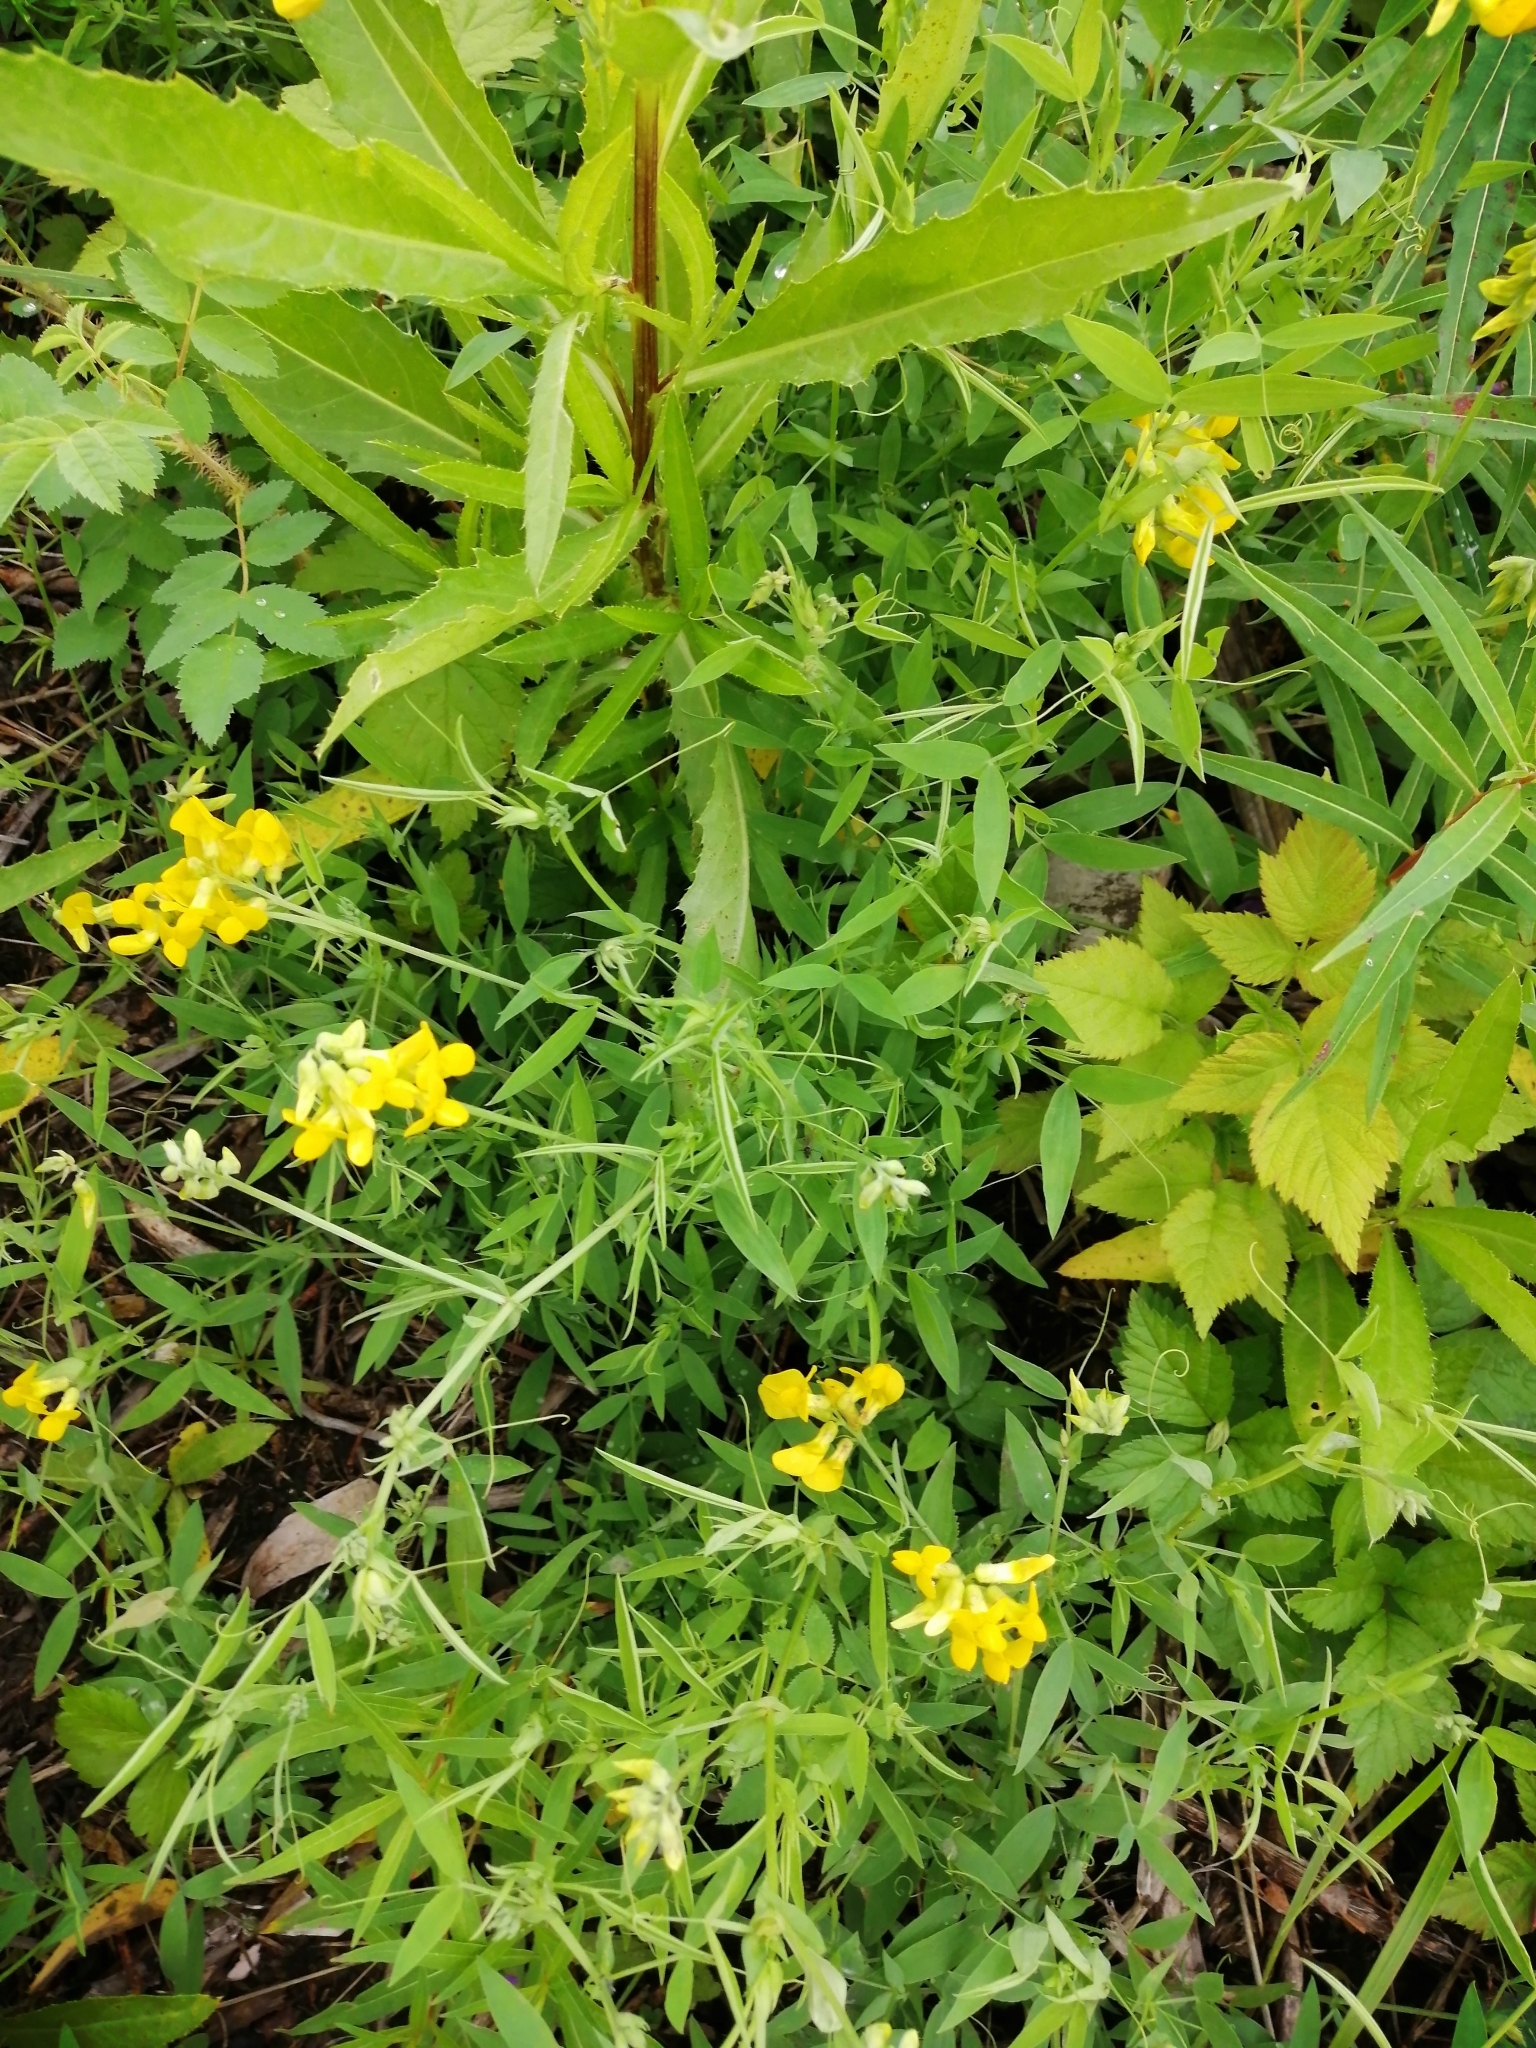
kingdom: Plantae
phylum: Tracheophyta
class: Magnoliopsida
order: Fabales
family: Fabaceae
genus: Lathyrus
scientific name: Lathyrus pratensis
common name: Meadow vetchling
